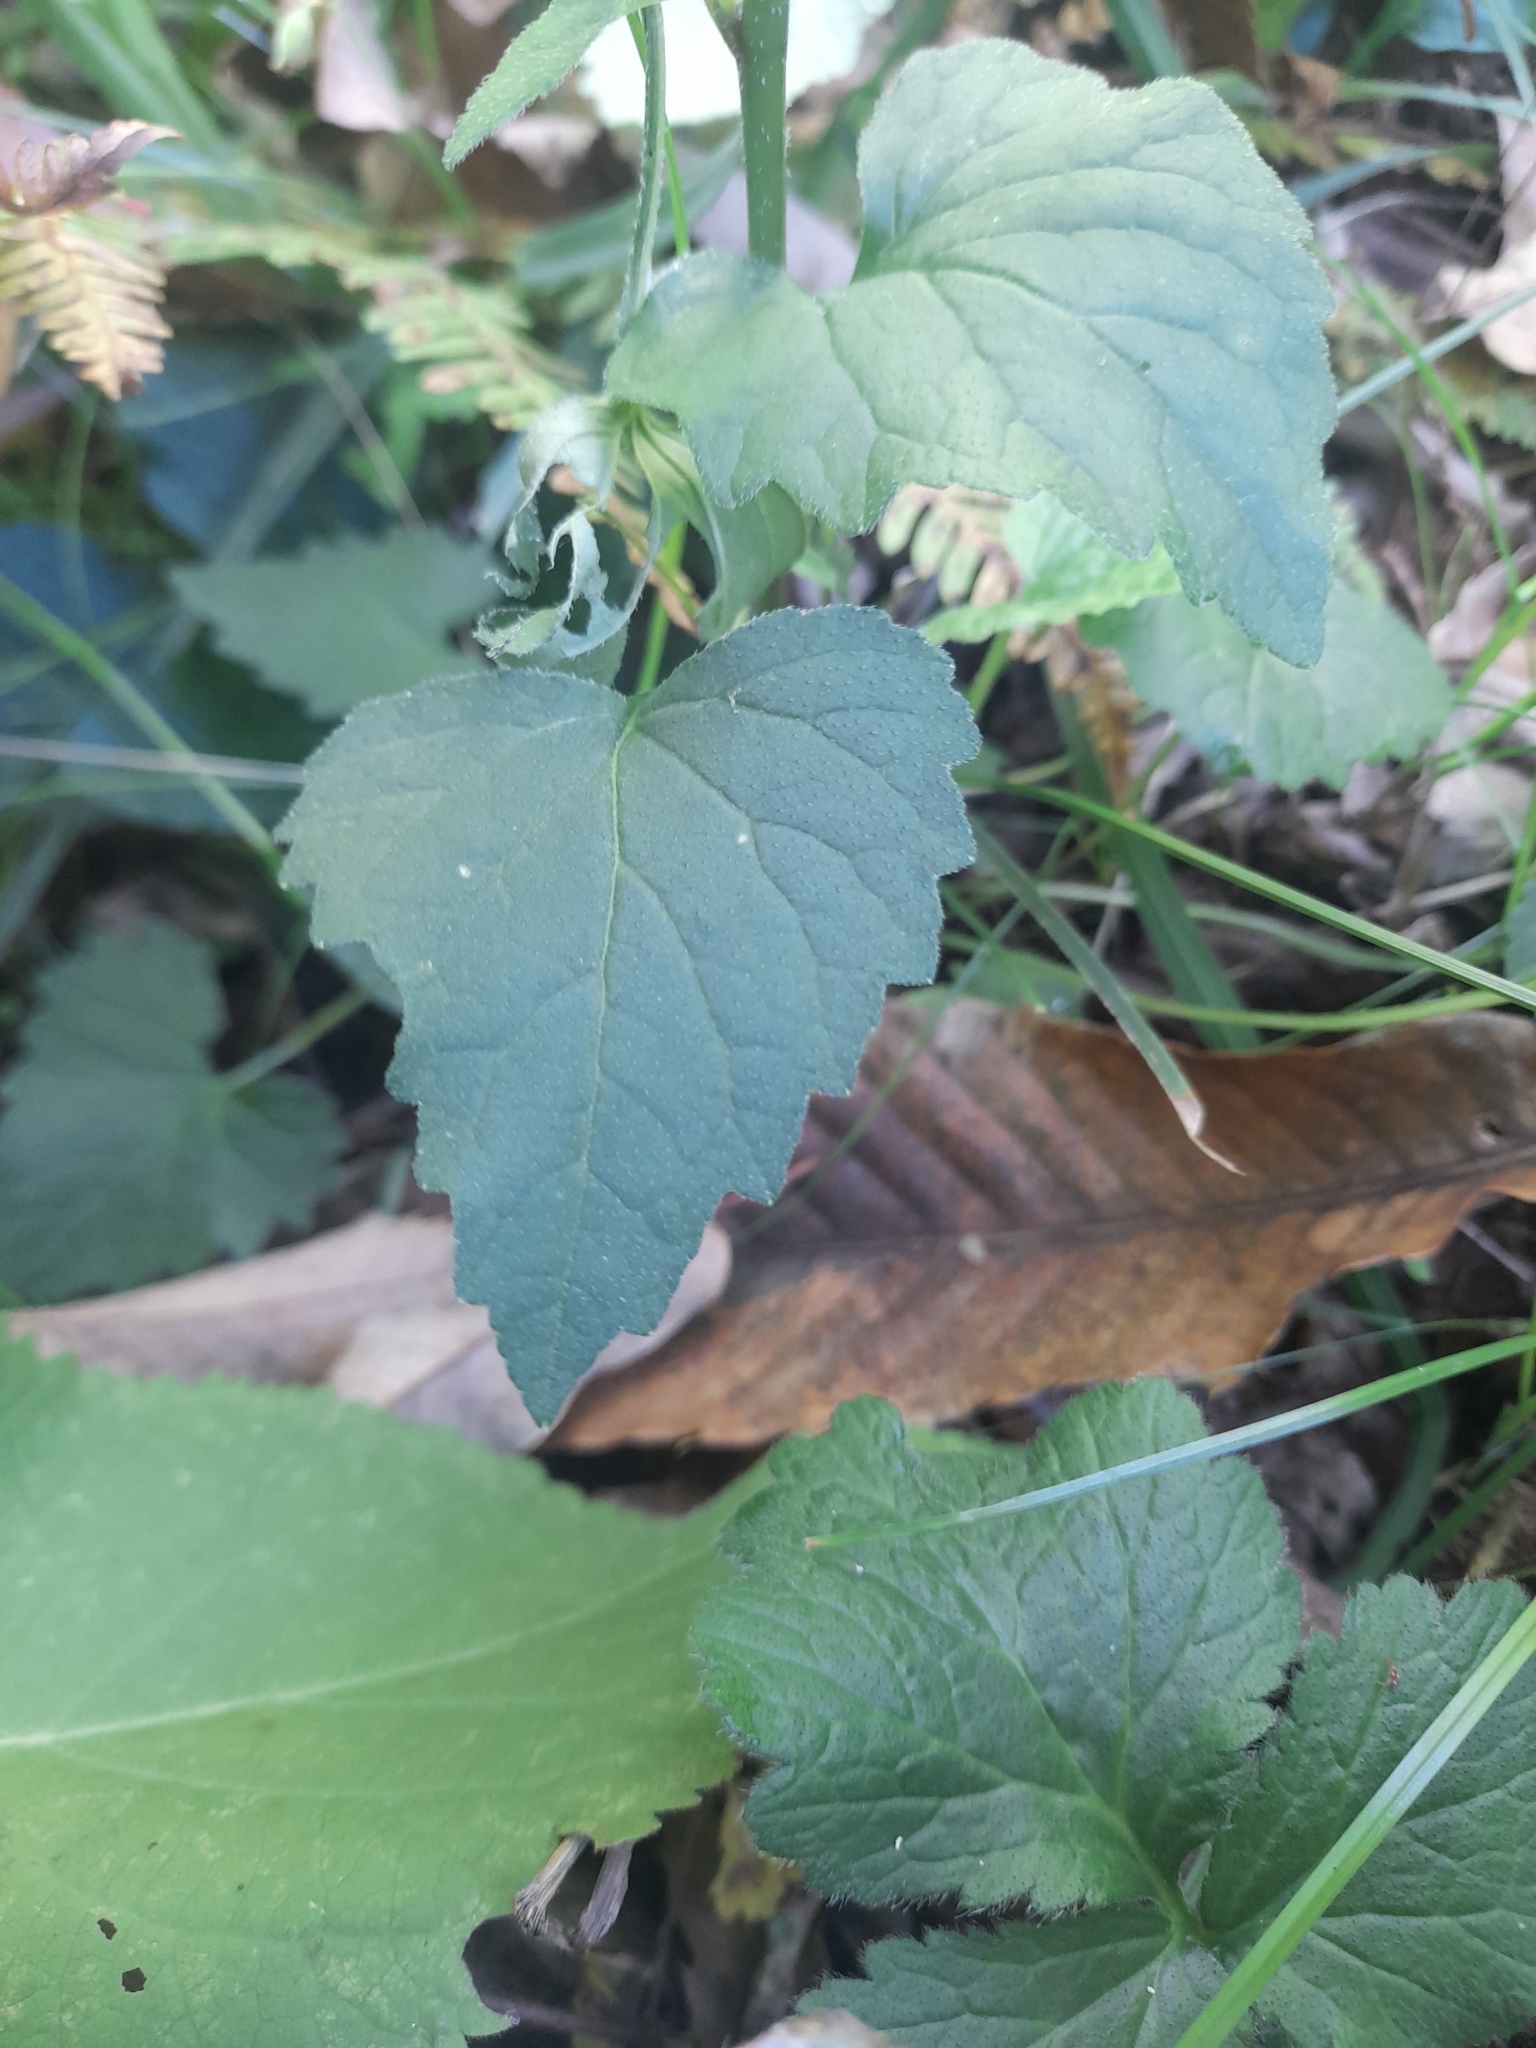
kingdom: Plantae
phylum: Tracheophyta
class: Magnoliopsida
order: Asterales
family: Campanulaceae
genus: Campanula
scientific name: Campanula trachelium
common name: Nettle-leaved bellflower
